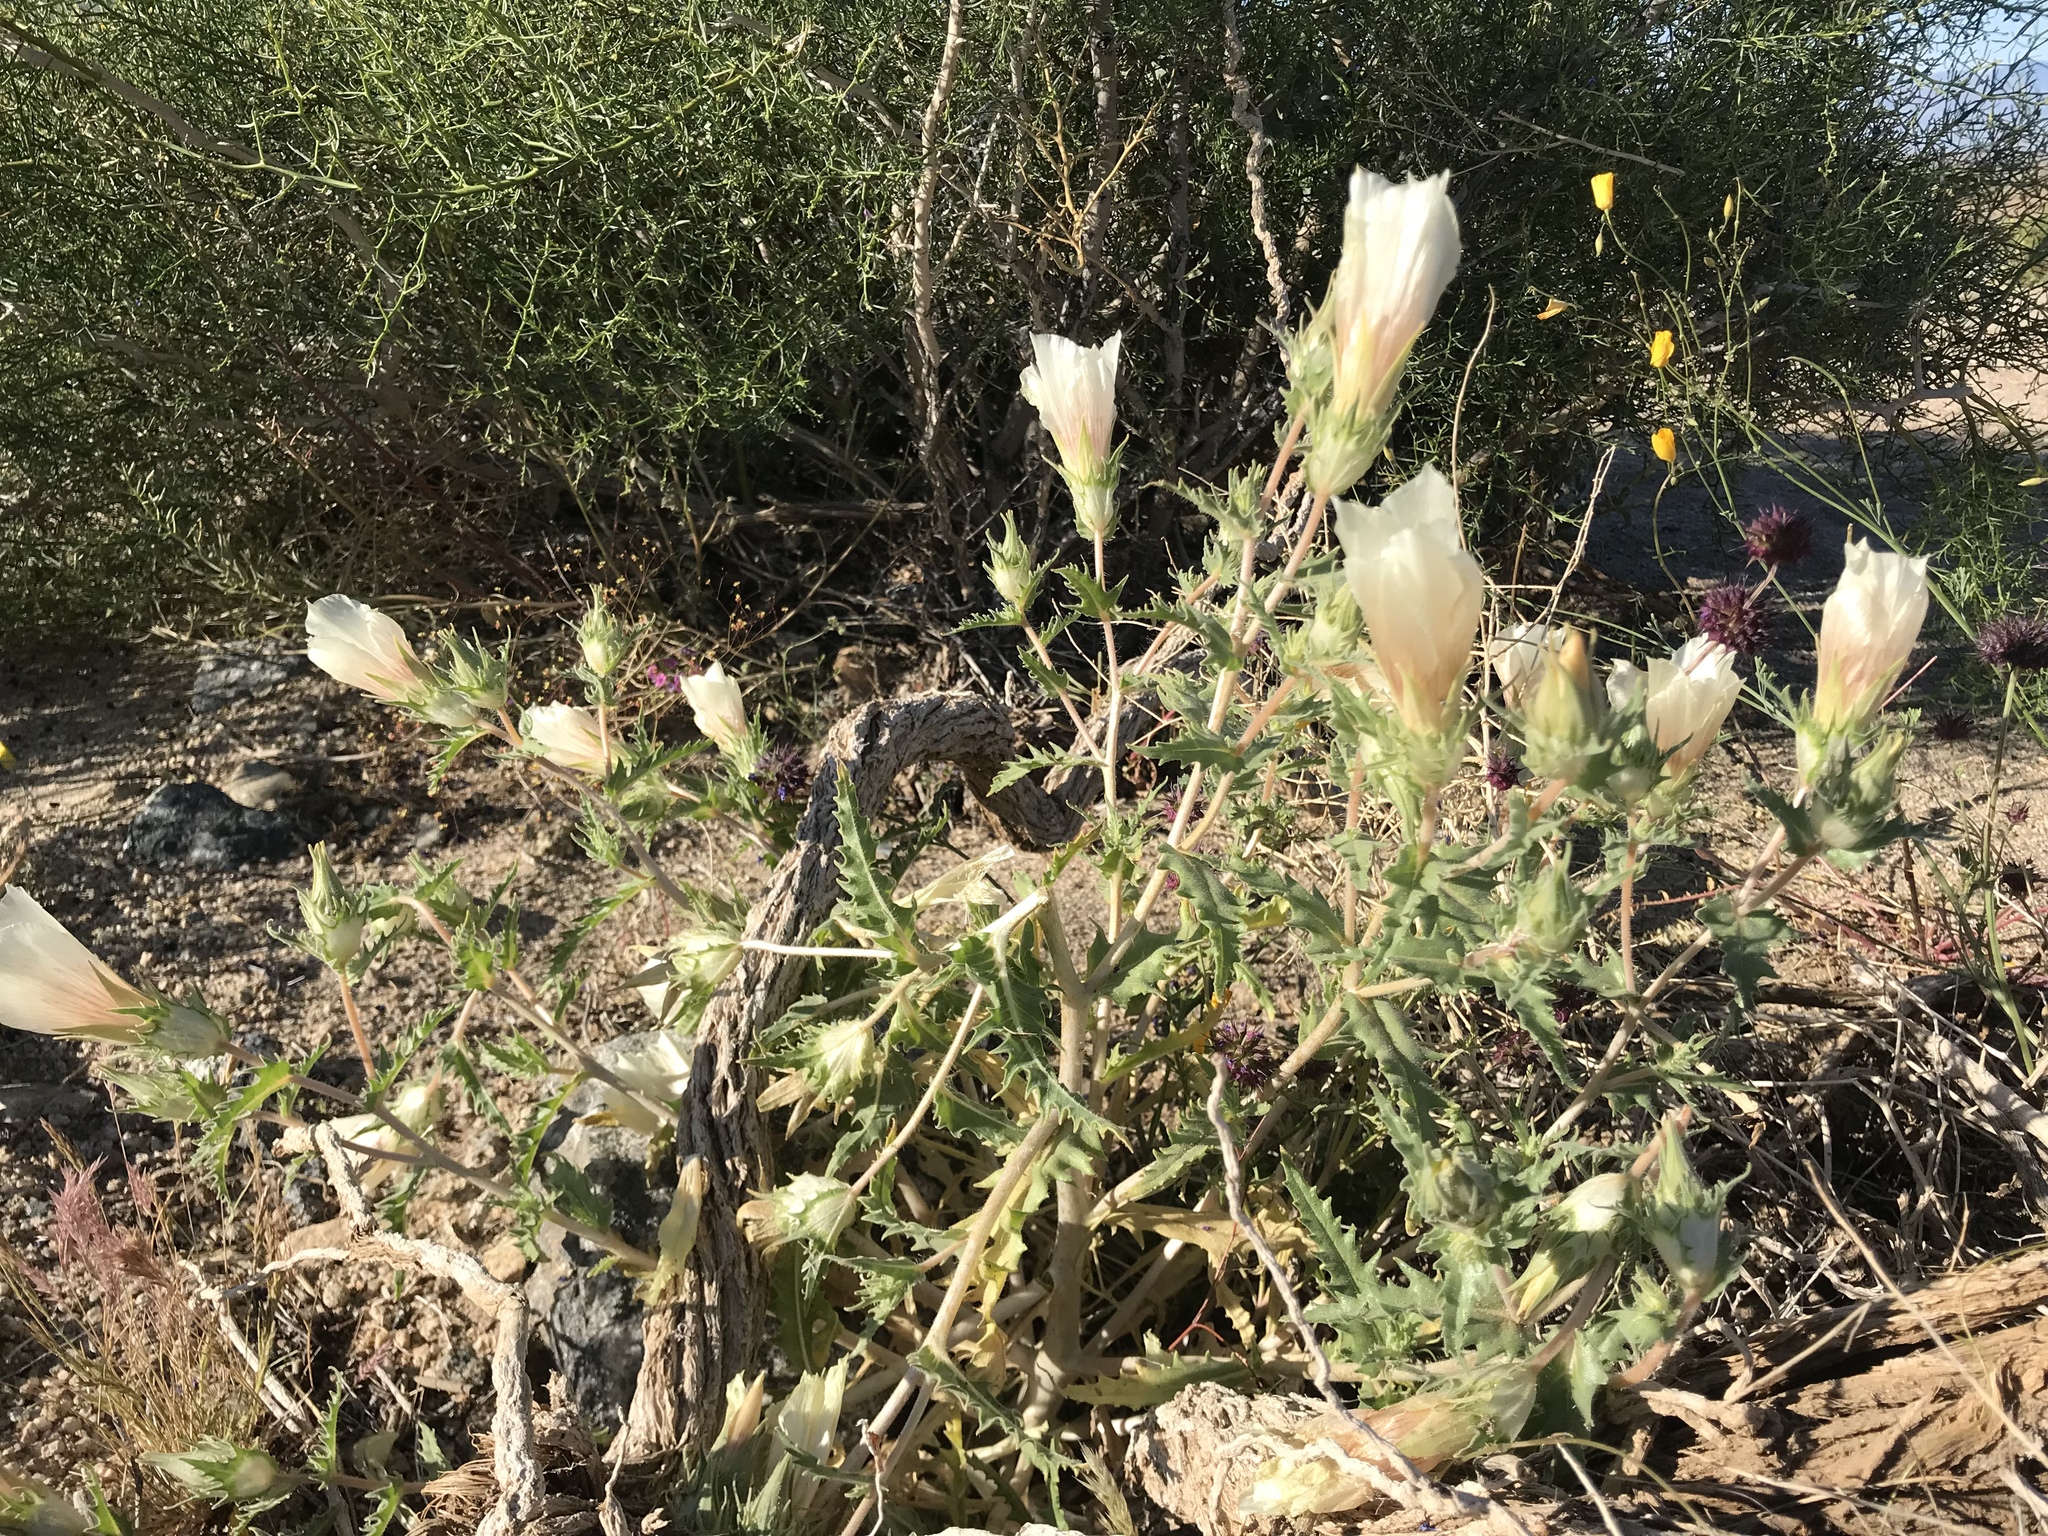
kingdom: Plantae
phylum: Tracheophyta
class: Magnoliopsida
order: Cornales
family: Loasaceae
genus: Mentzelia
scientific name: Mentzelia involucrata
